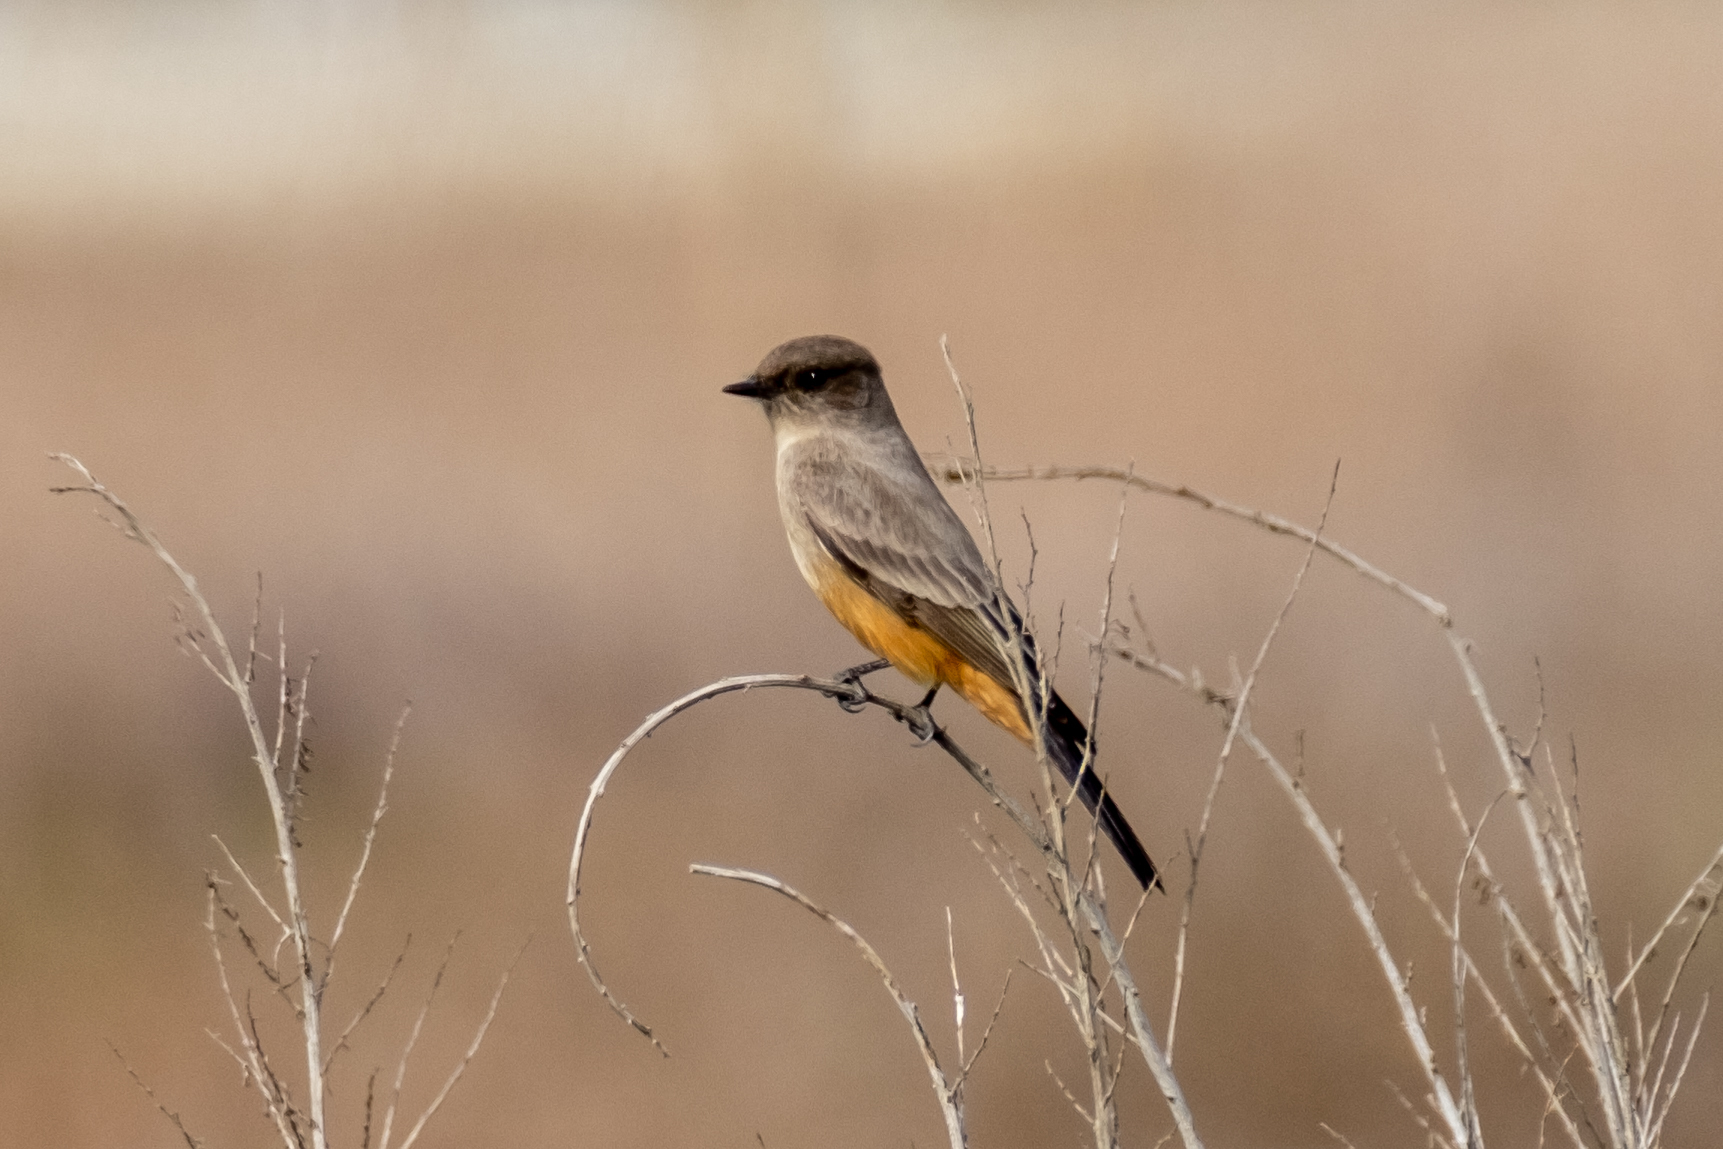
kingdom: Animalia
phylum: Chordata
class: Aves
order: Passeriformes
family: Tyrannidae
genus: Sayornis
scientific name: Sayornis saya
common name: Say's phoebe
